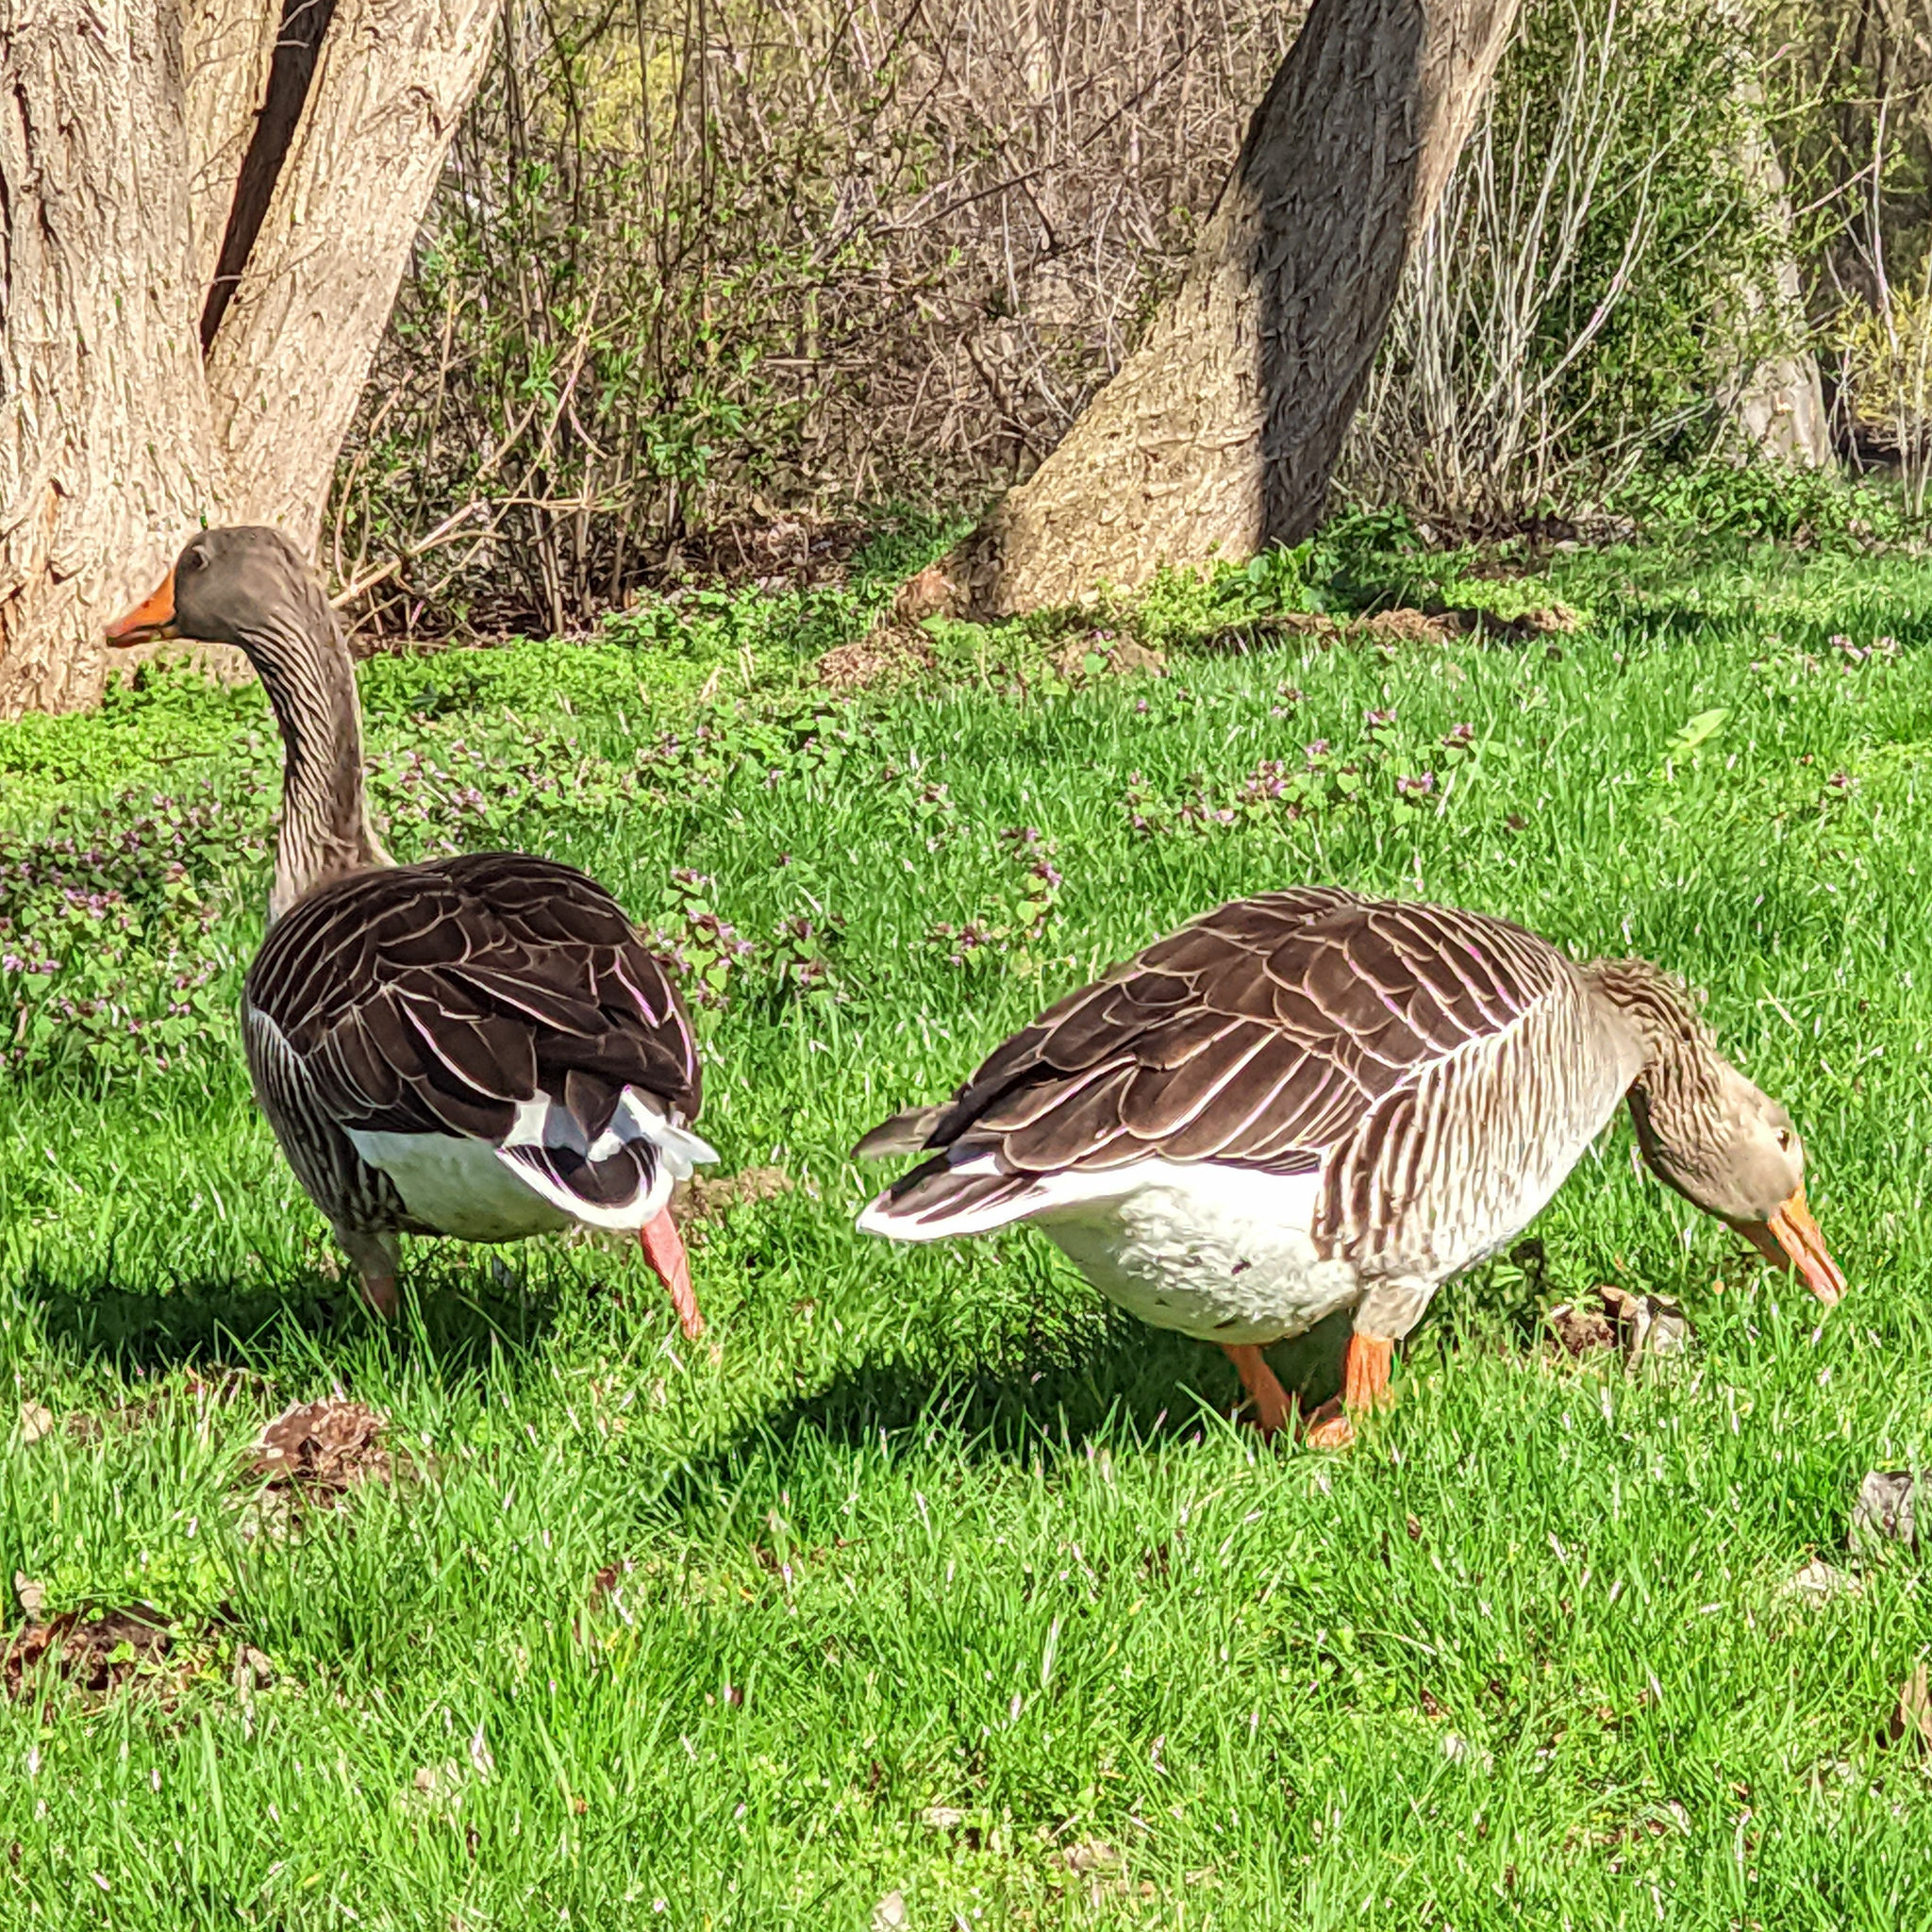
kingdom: Animalia
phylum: Chordata
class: Aves
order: Anseriformes
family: Anatidae
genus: Anser
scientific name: Anser anser
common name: Greylag goose
